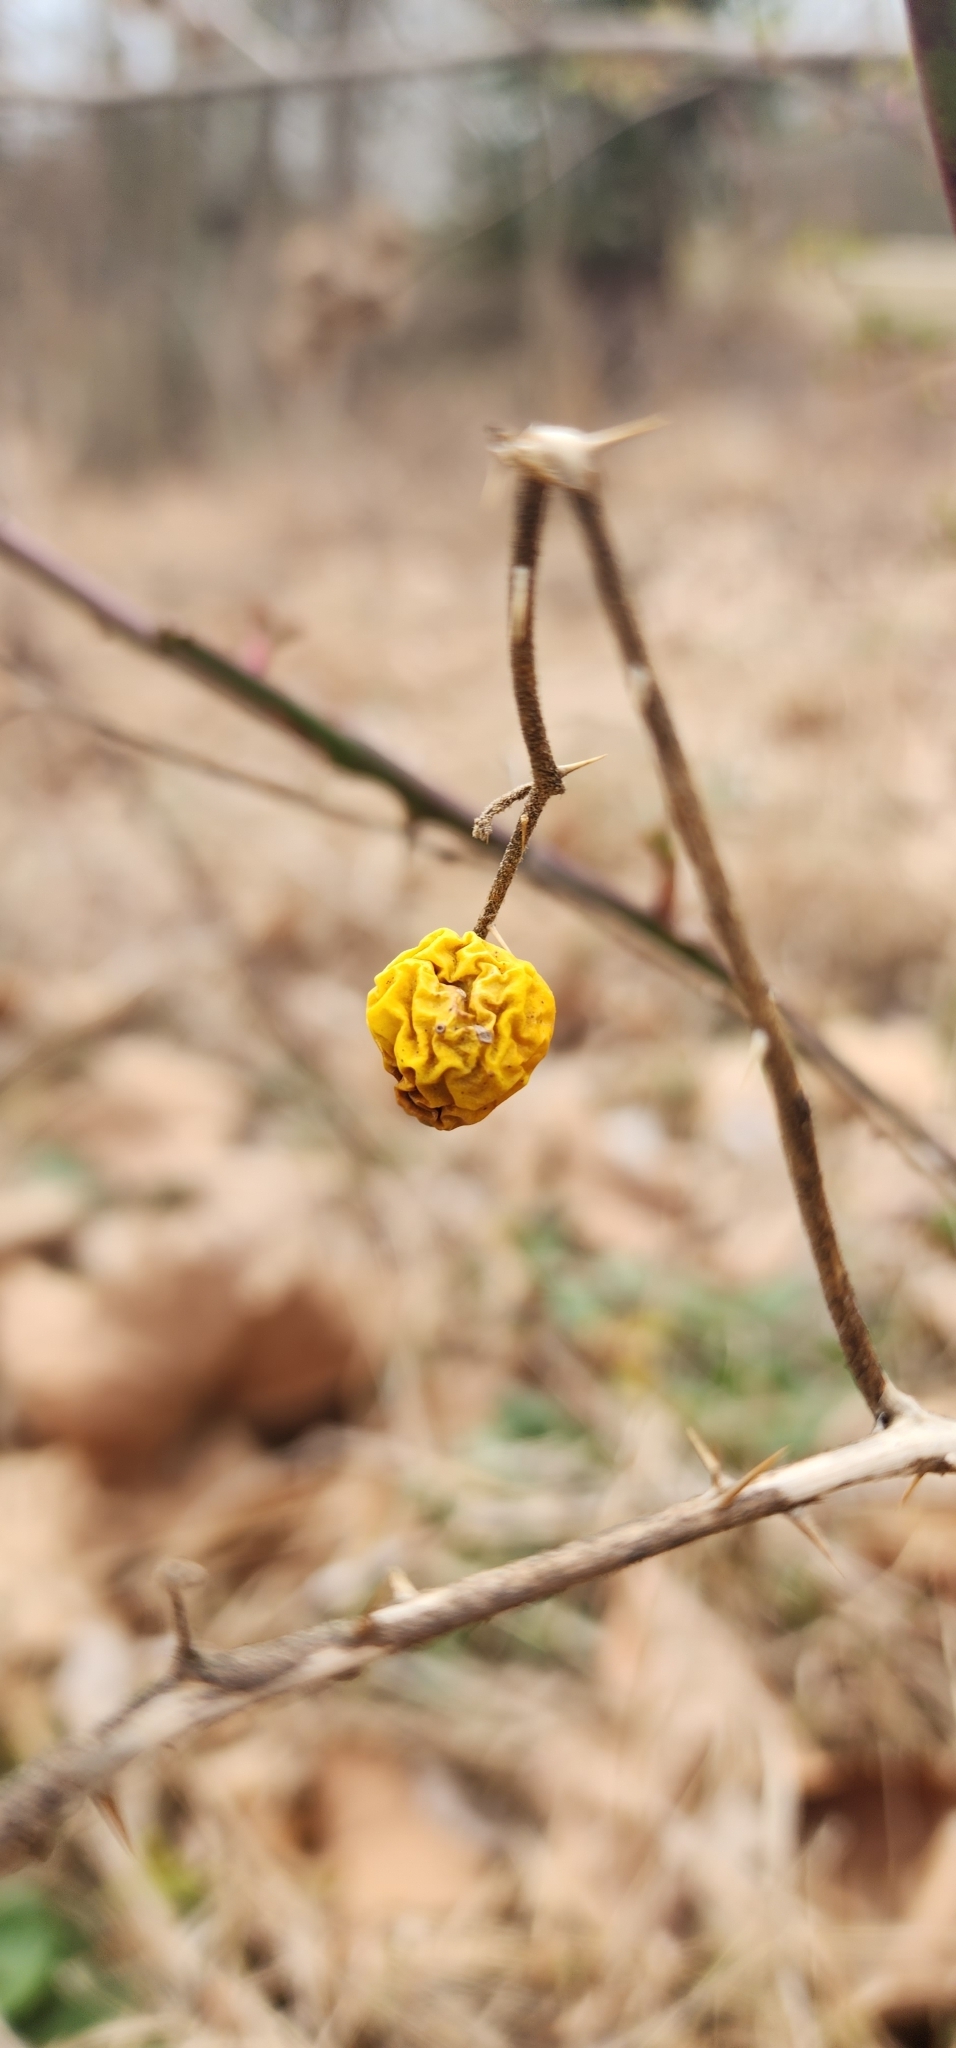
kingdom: Plantae
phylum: Tracheophyta
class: Magnoliopsida
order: Solanales
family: Solanaceae
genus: Solanum
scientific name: Solanum carolinense
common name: Horse-nettle
